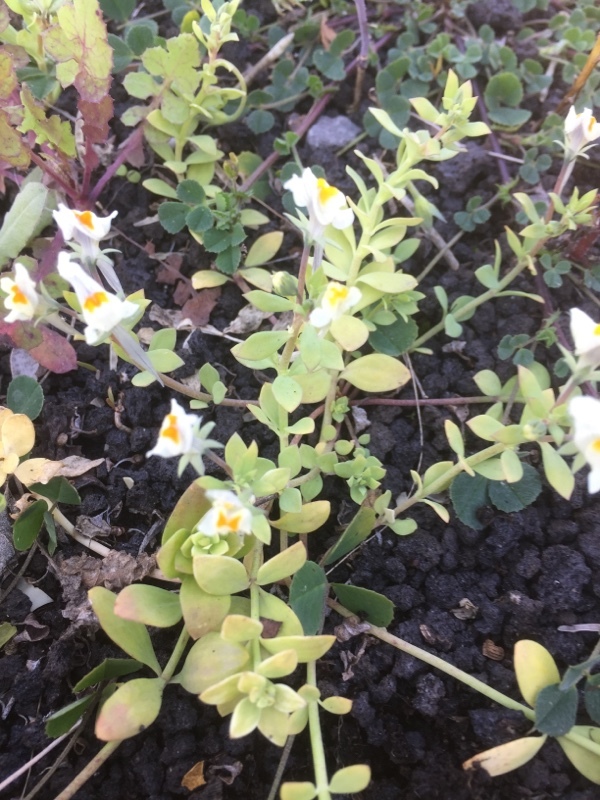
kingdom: Plantae
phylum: Tracheophyta
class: Magnoliopsida
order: Lamiales
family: Plantaginaceae
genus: Linaria
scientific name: Linaria reflexa
